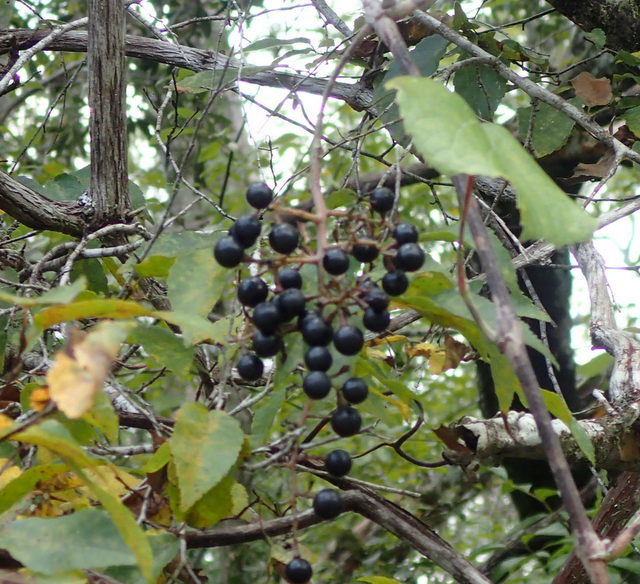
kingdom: Plantae
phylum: Tracheophyta
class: Magnoliopsida
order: Vitales
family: Vitaceae
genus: Vitis
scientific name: Vitis vulpina
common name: Frost grape
